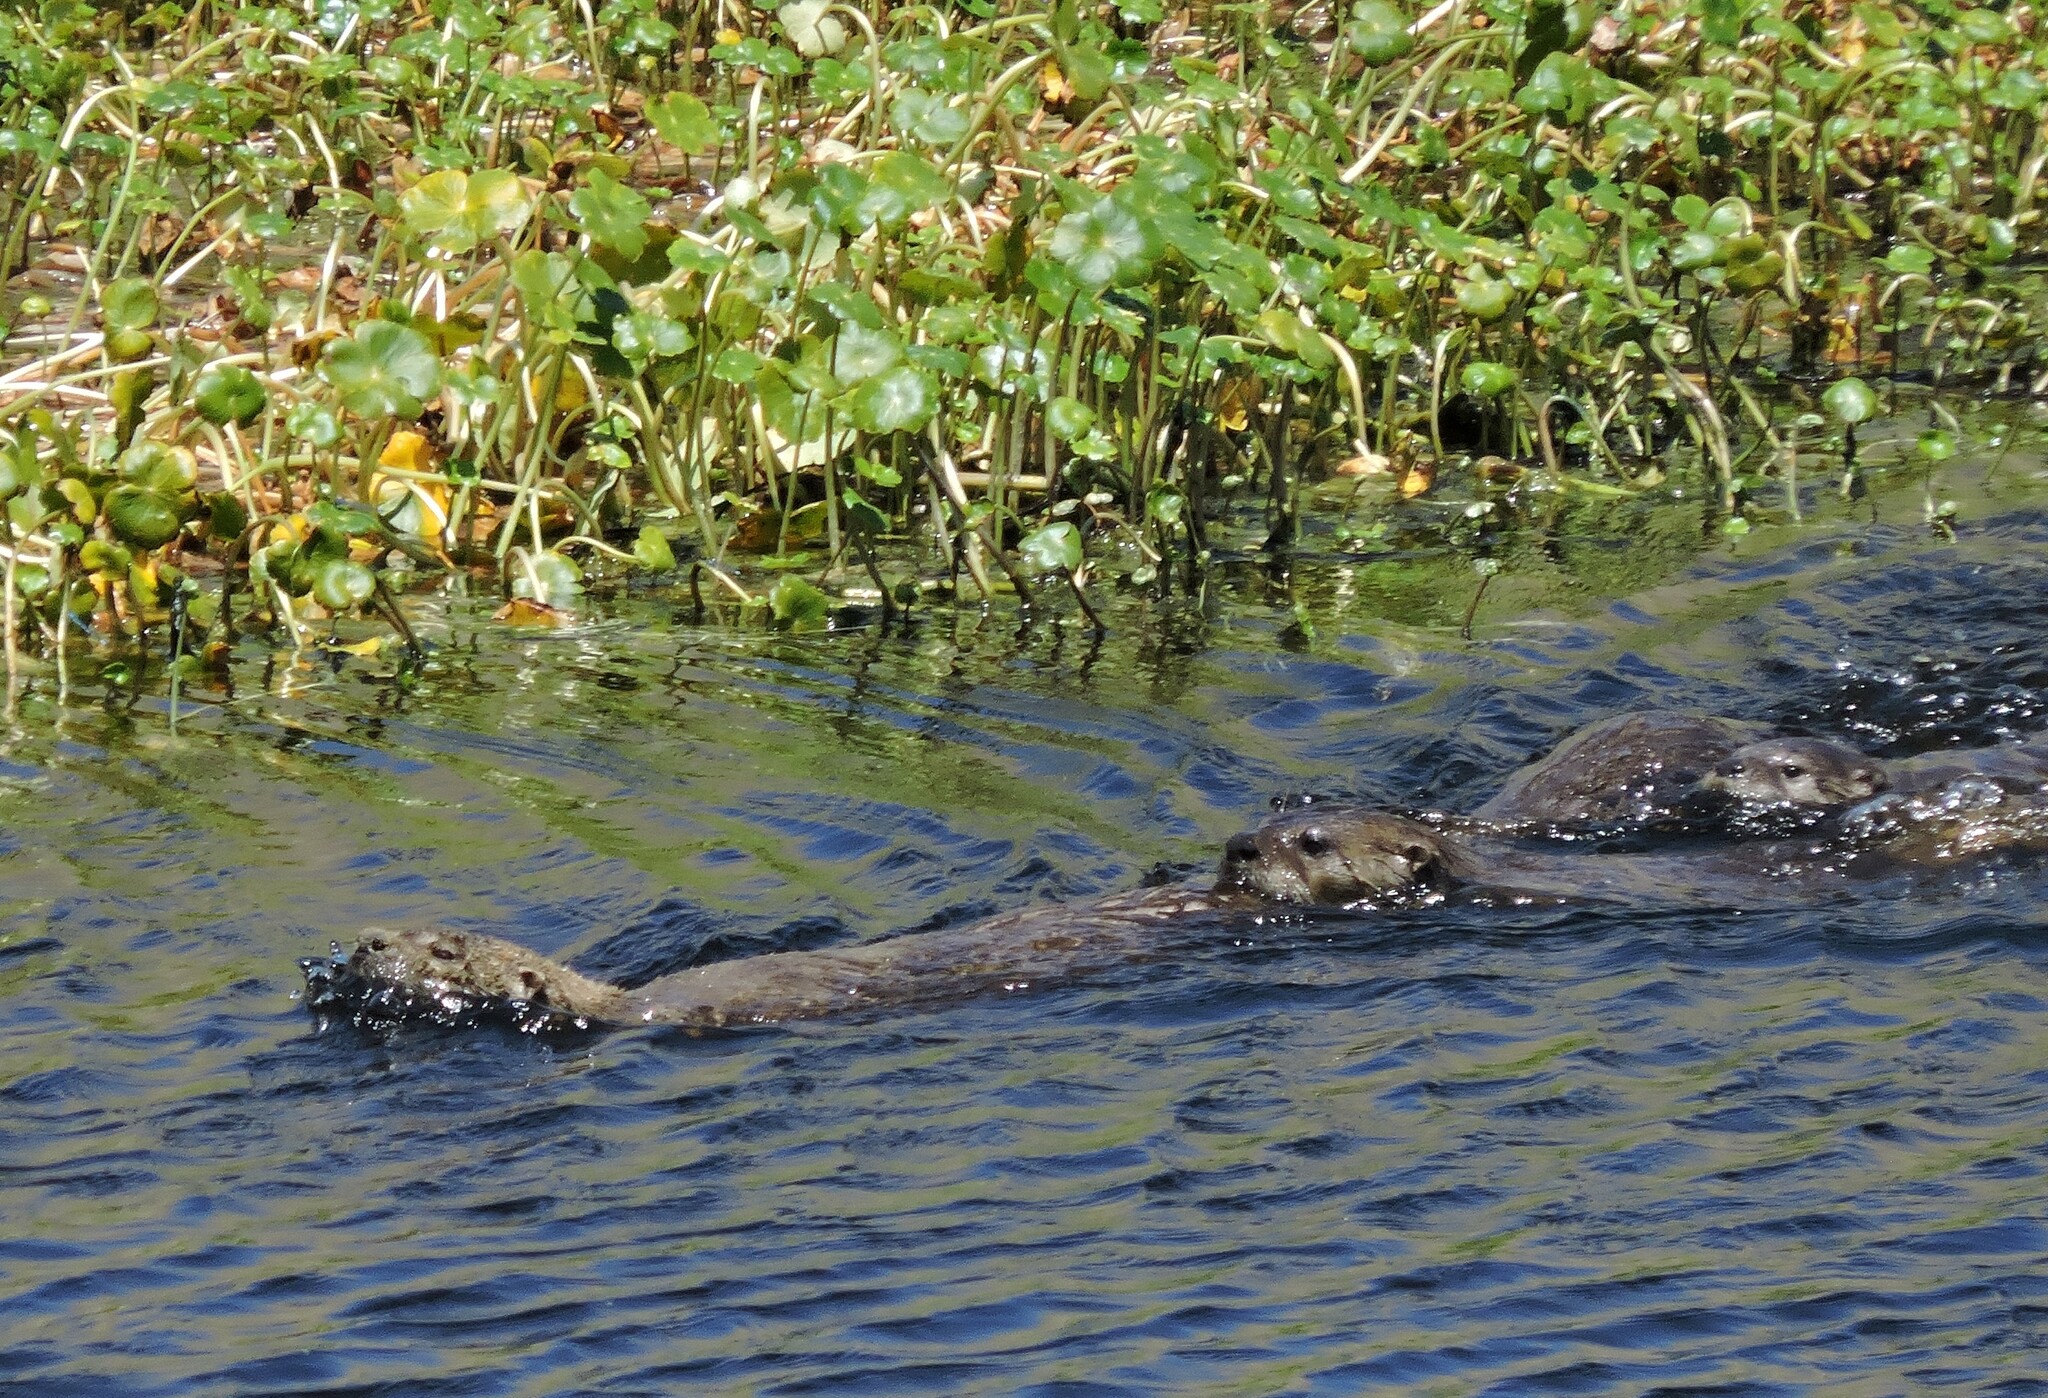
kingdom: Animalia
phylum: Chordata
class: Mammalia
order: Carnivora
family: Mustelidae
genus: Lontra
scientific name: Lontra canadensis
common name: North american river otter
